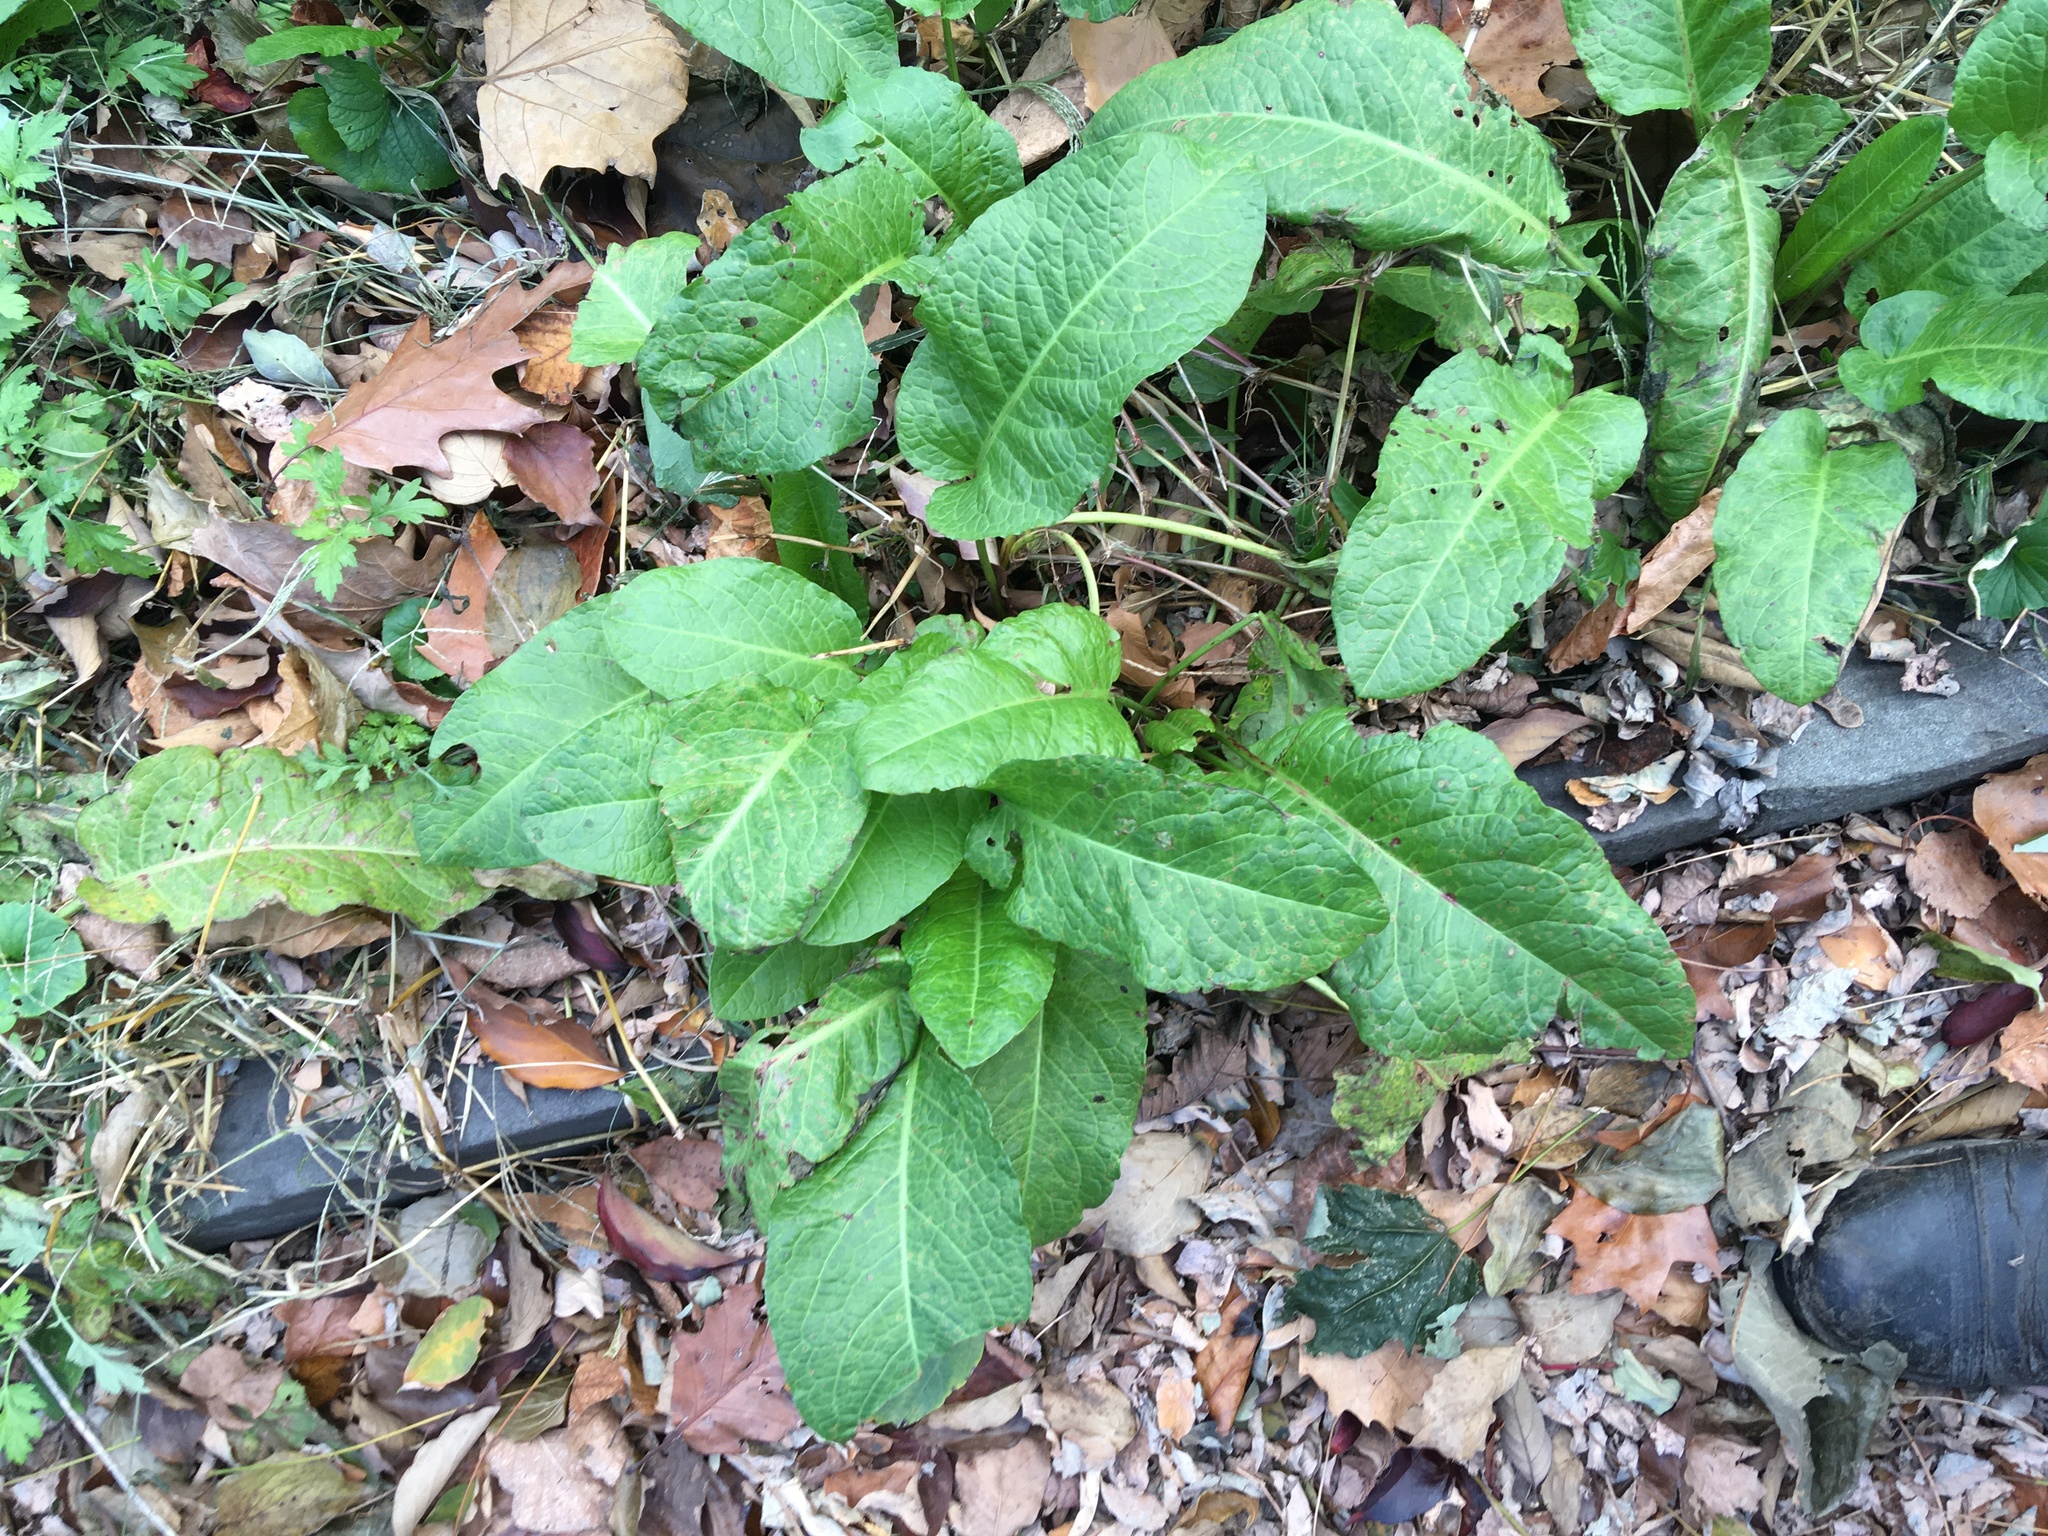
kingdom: Plantae
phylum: Tracheophyta
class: Magnoliopsida
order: Caryophyllales
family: Polygonaceae
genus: Rumex
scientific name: Rumex obtusifolius
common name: Bitter dock
